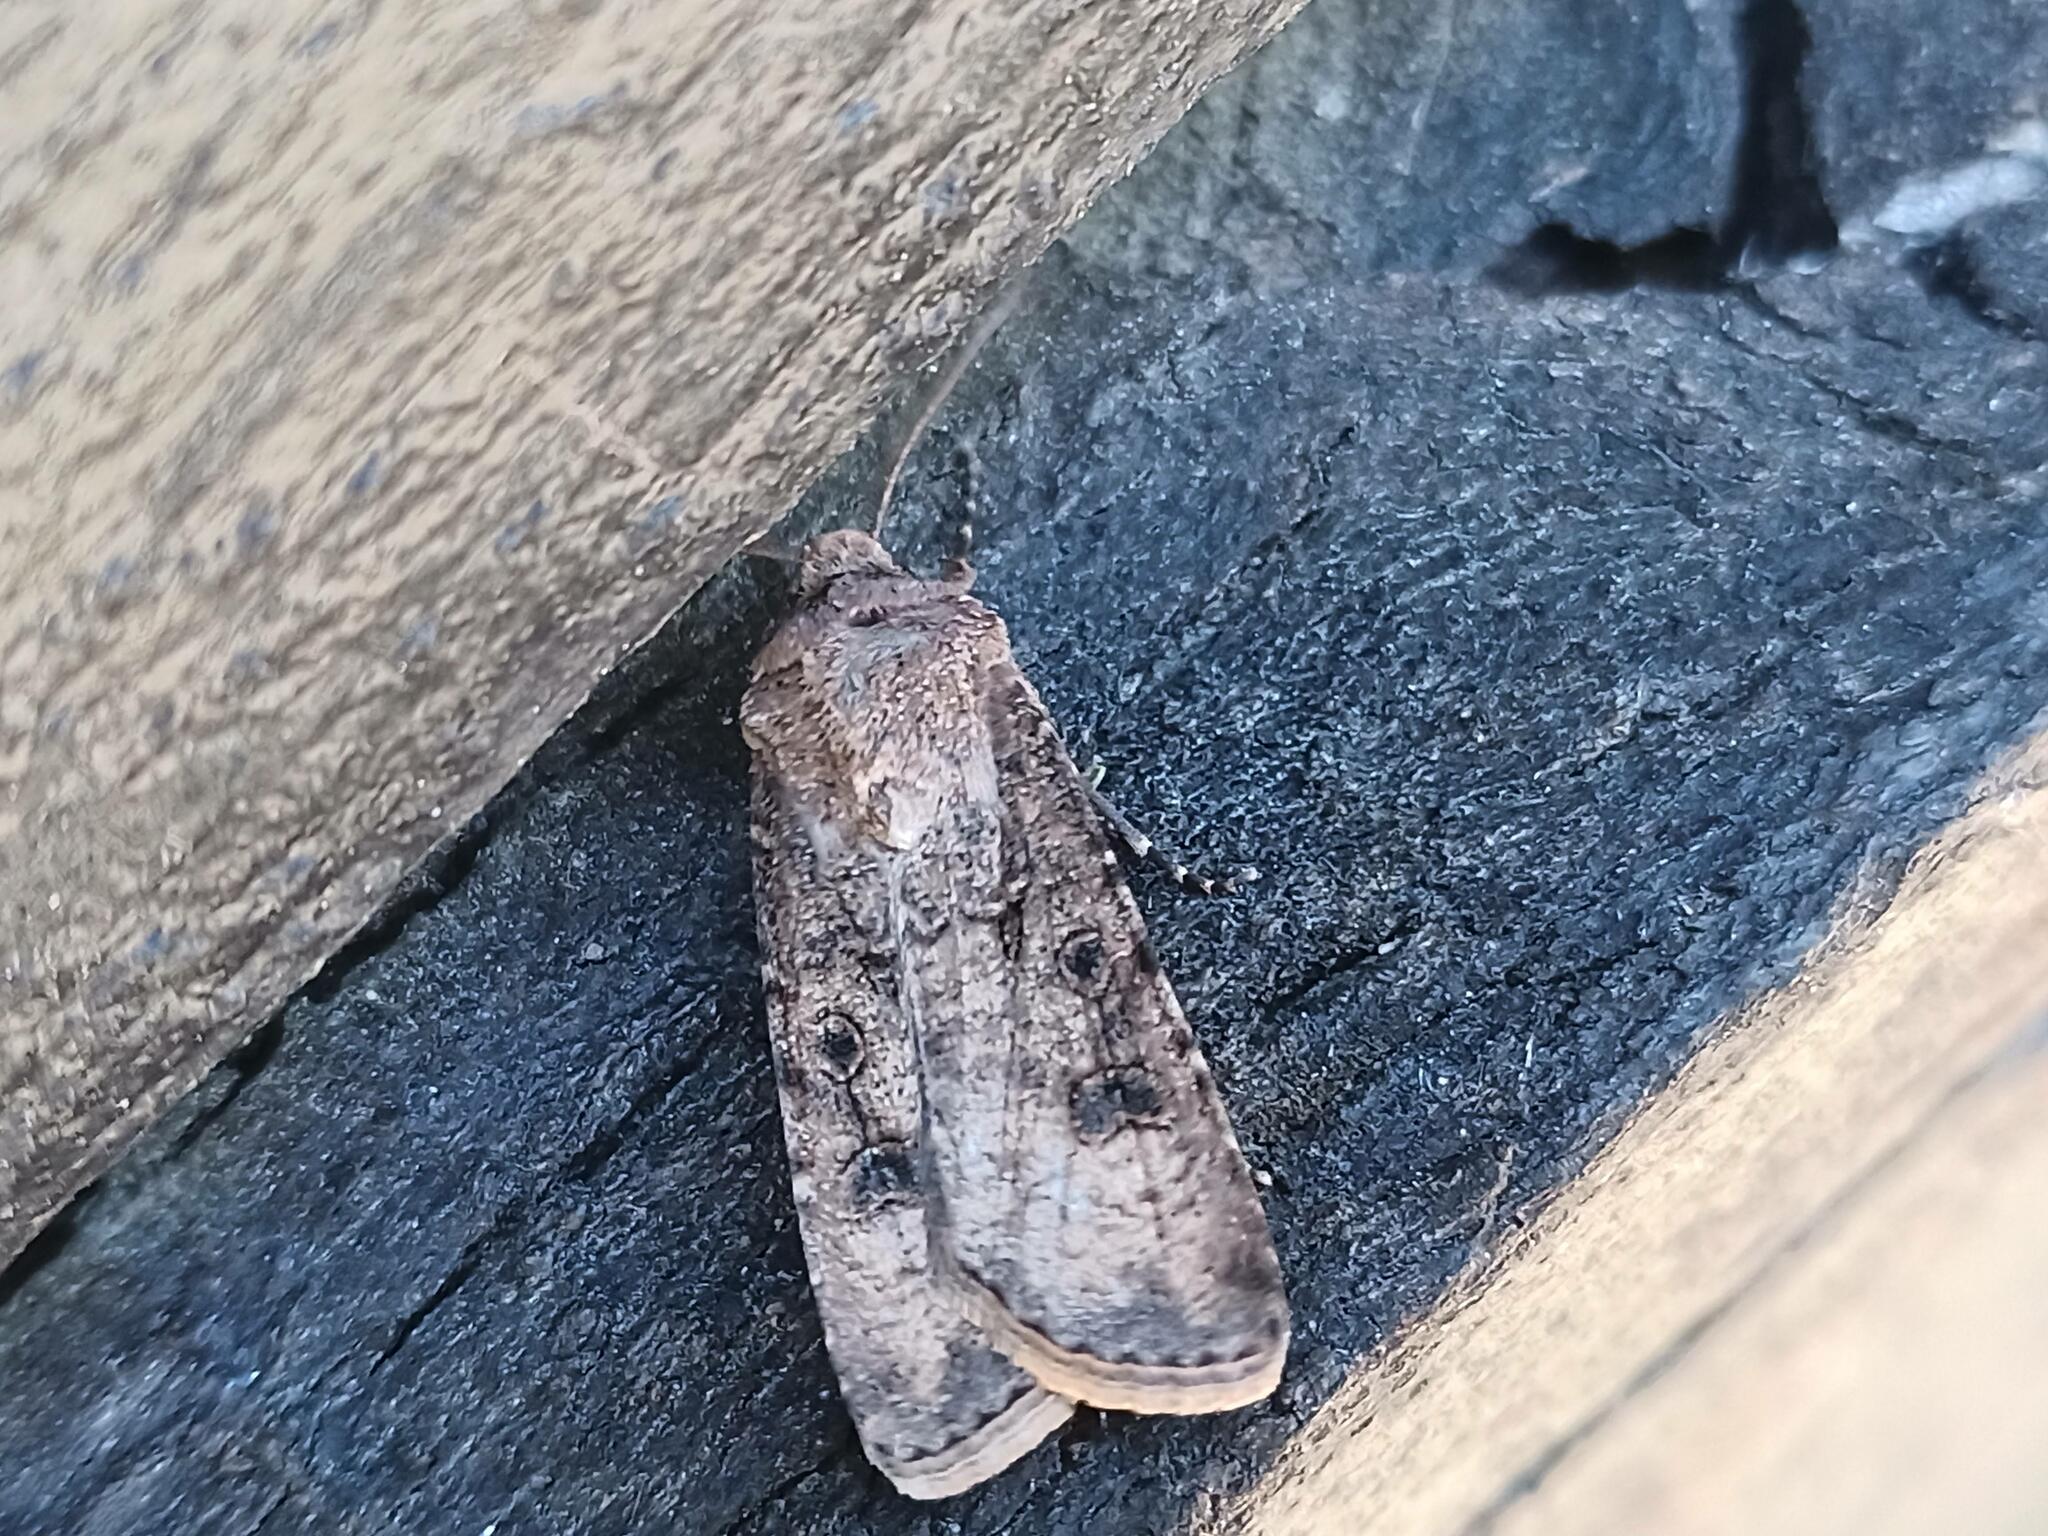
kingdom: Animalia
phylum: Arthropoda
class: Insecta
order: Lepidoptera
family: Noctuidae
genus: Agrotis
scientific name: Agrotis segetum
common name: Turnip moth
